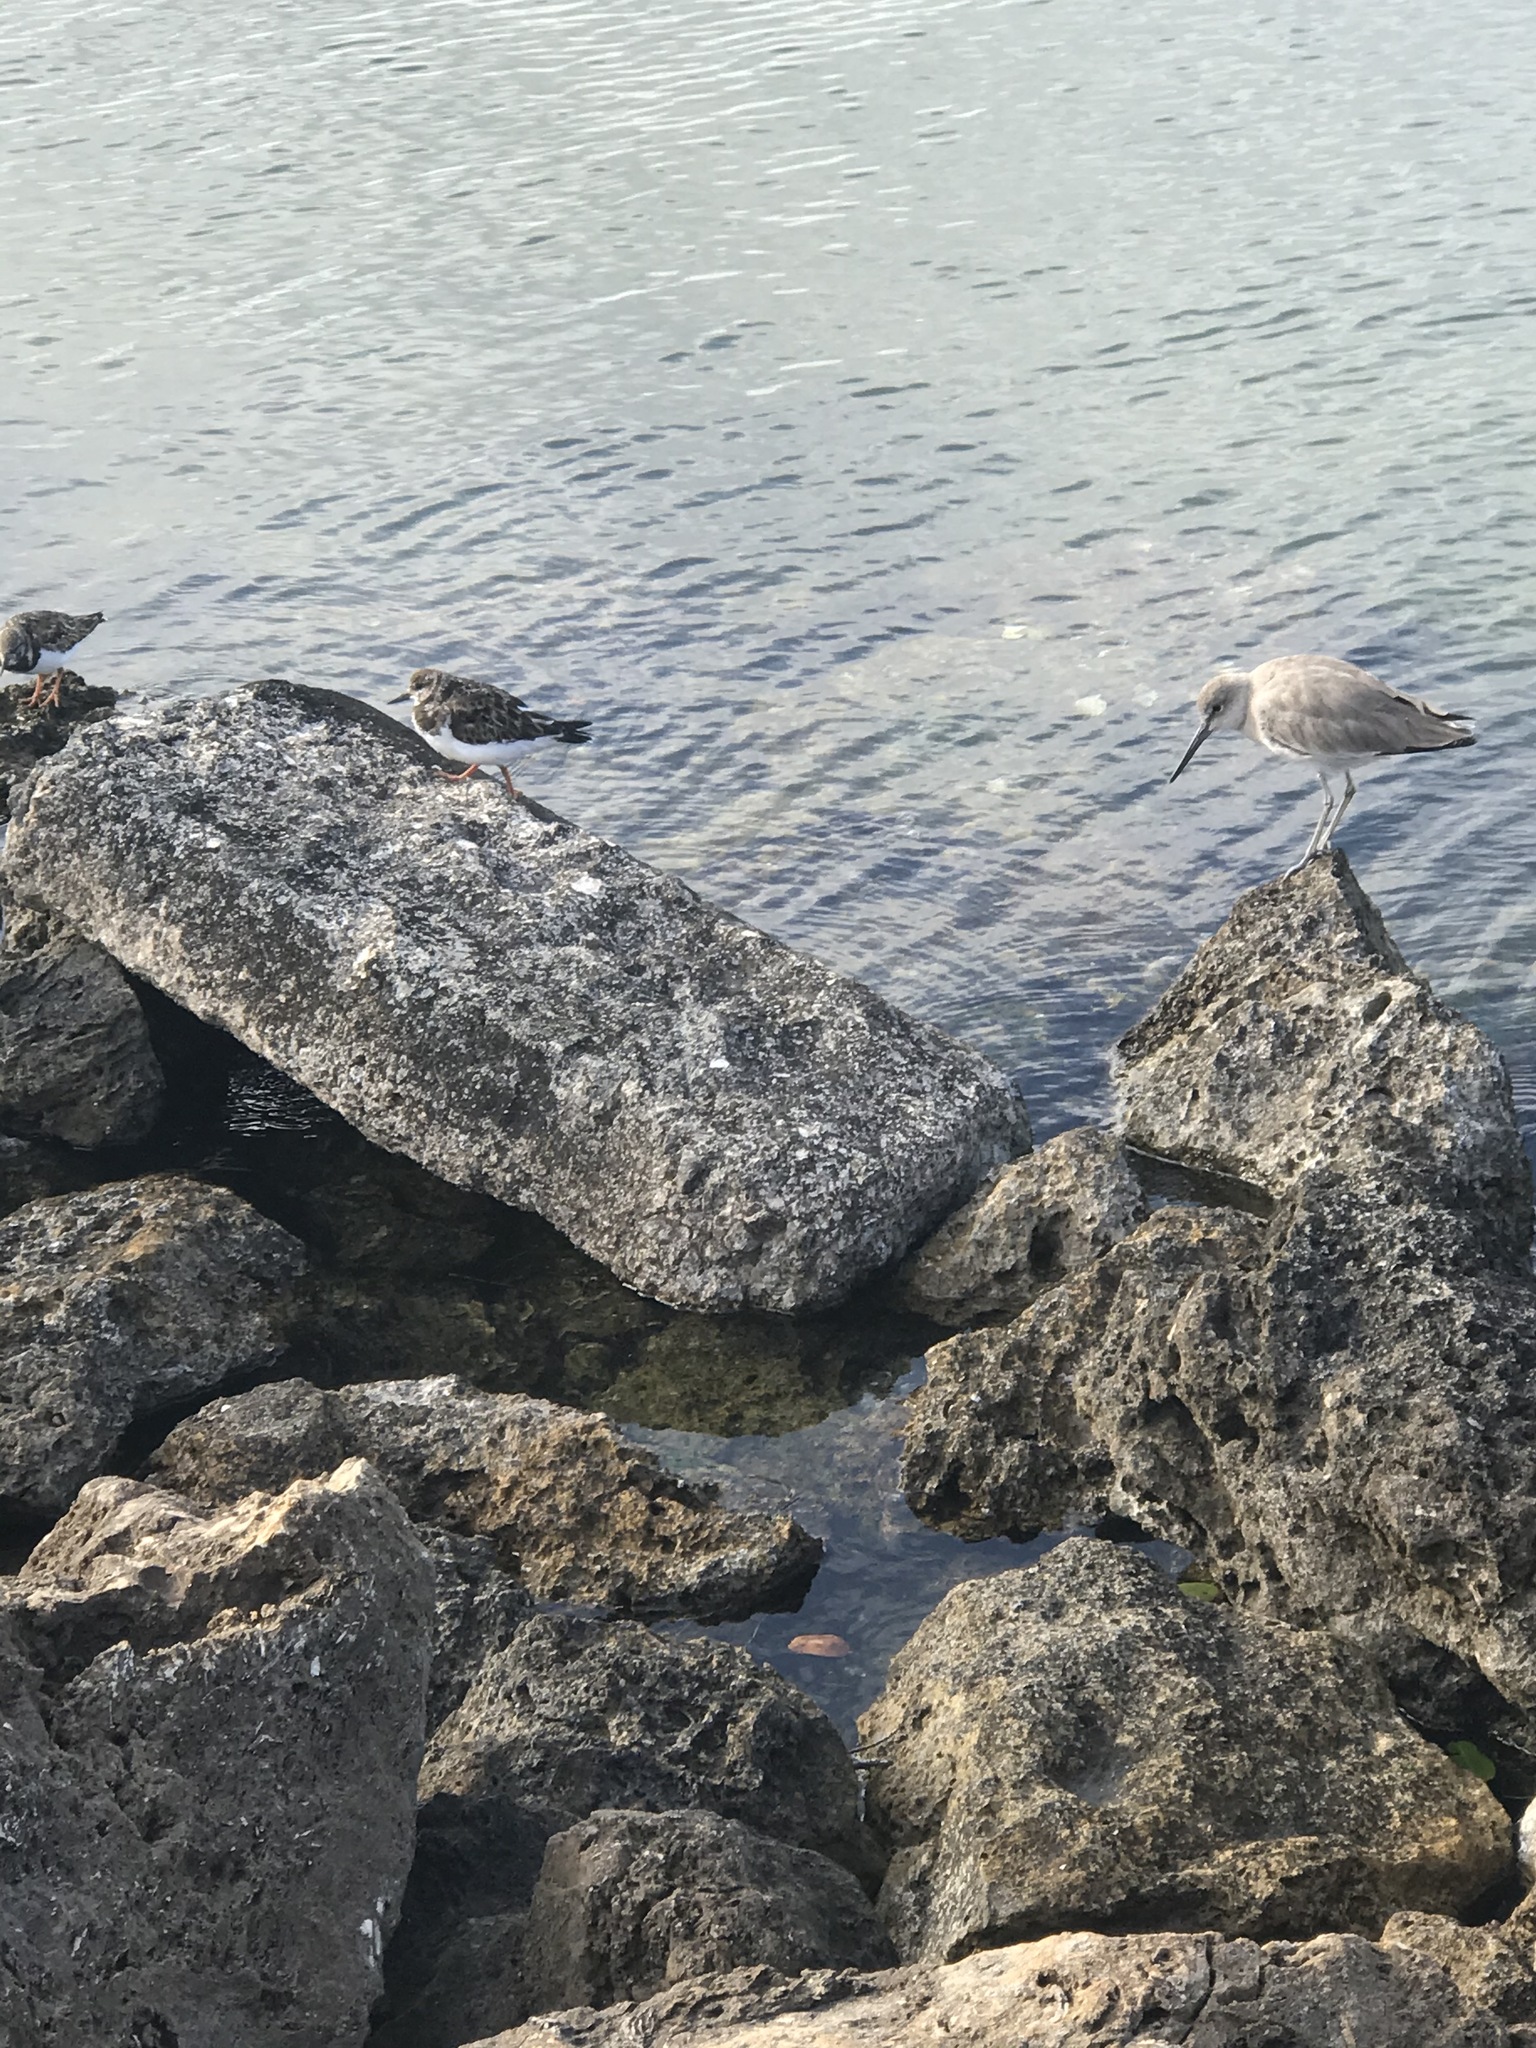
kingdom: Animalia
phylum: Chordata
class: Aves
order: Charadriiformes
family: Scolopacidae
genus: Tringa
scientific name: Tringa semipalmata
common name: Willet
